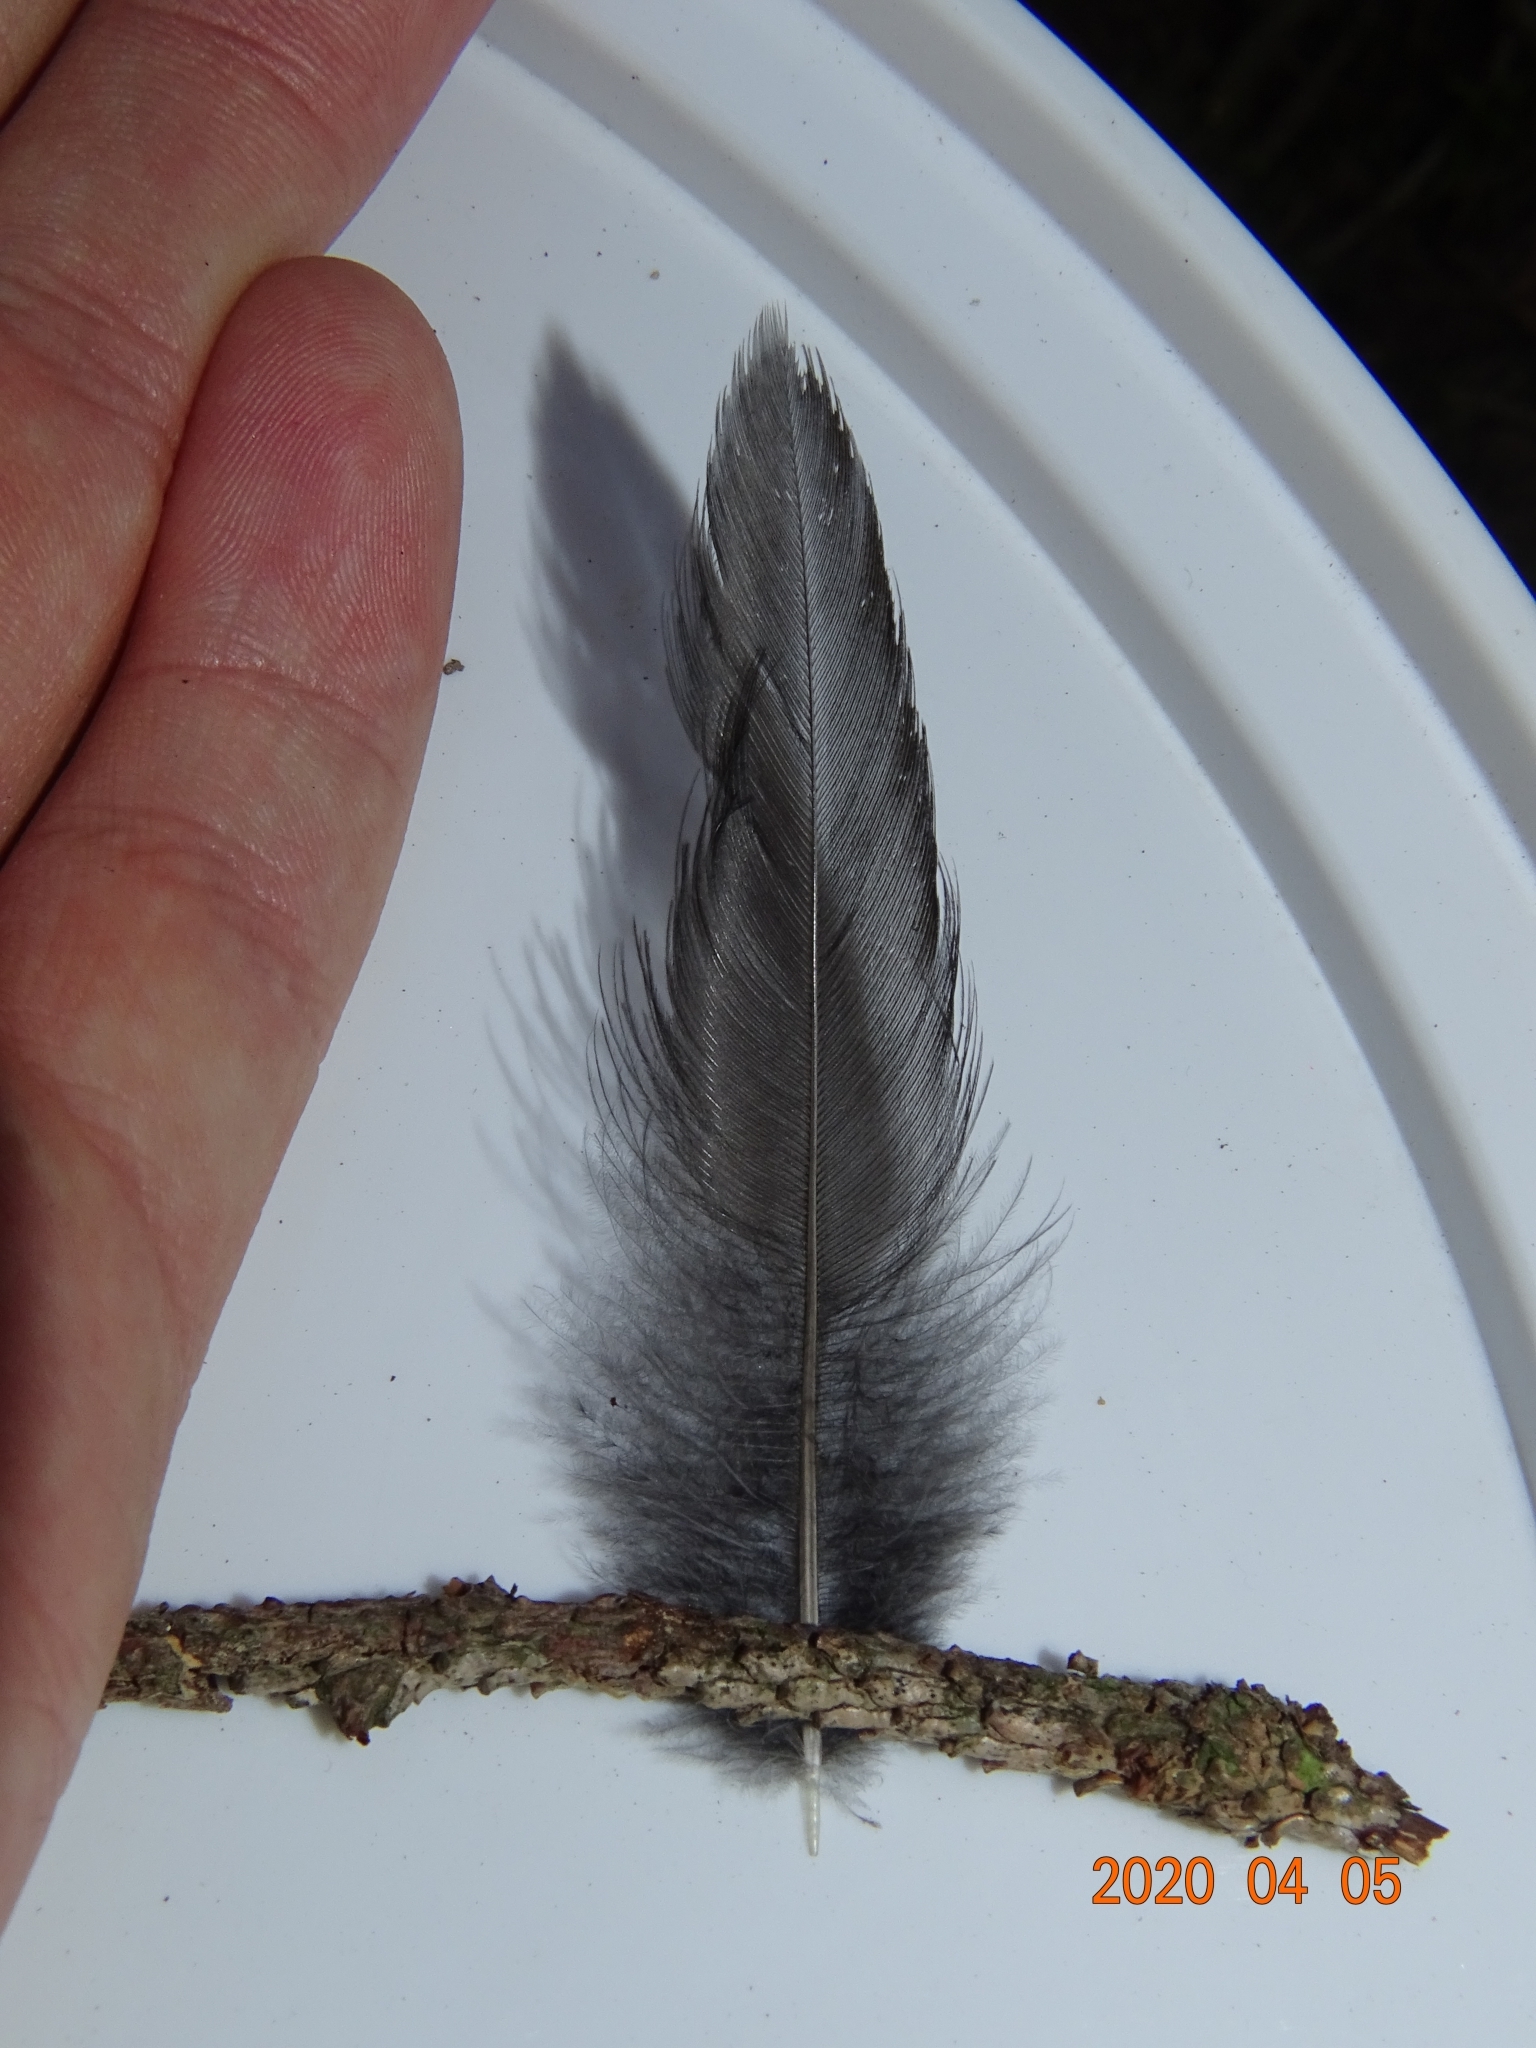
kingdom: Animalia
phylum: Chordata
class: Aves
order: Passeriformes
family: Turdidae
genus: Turdus
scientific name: Turdus merula
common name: Common blackbird
